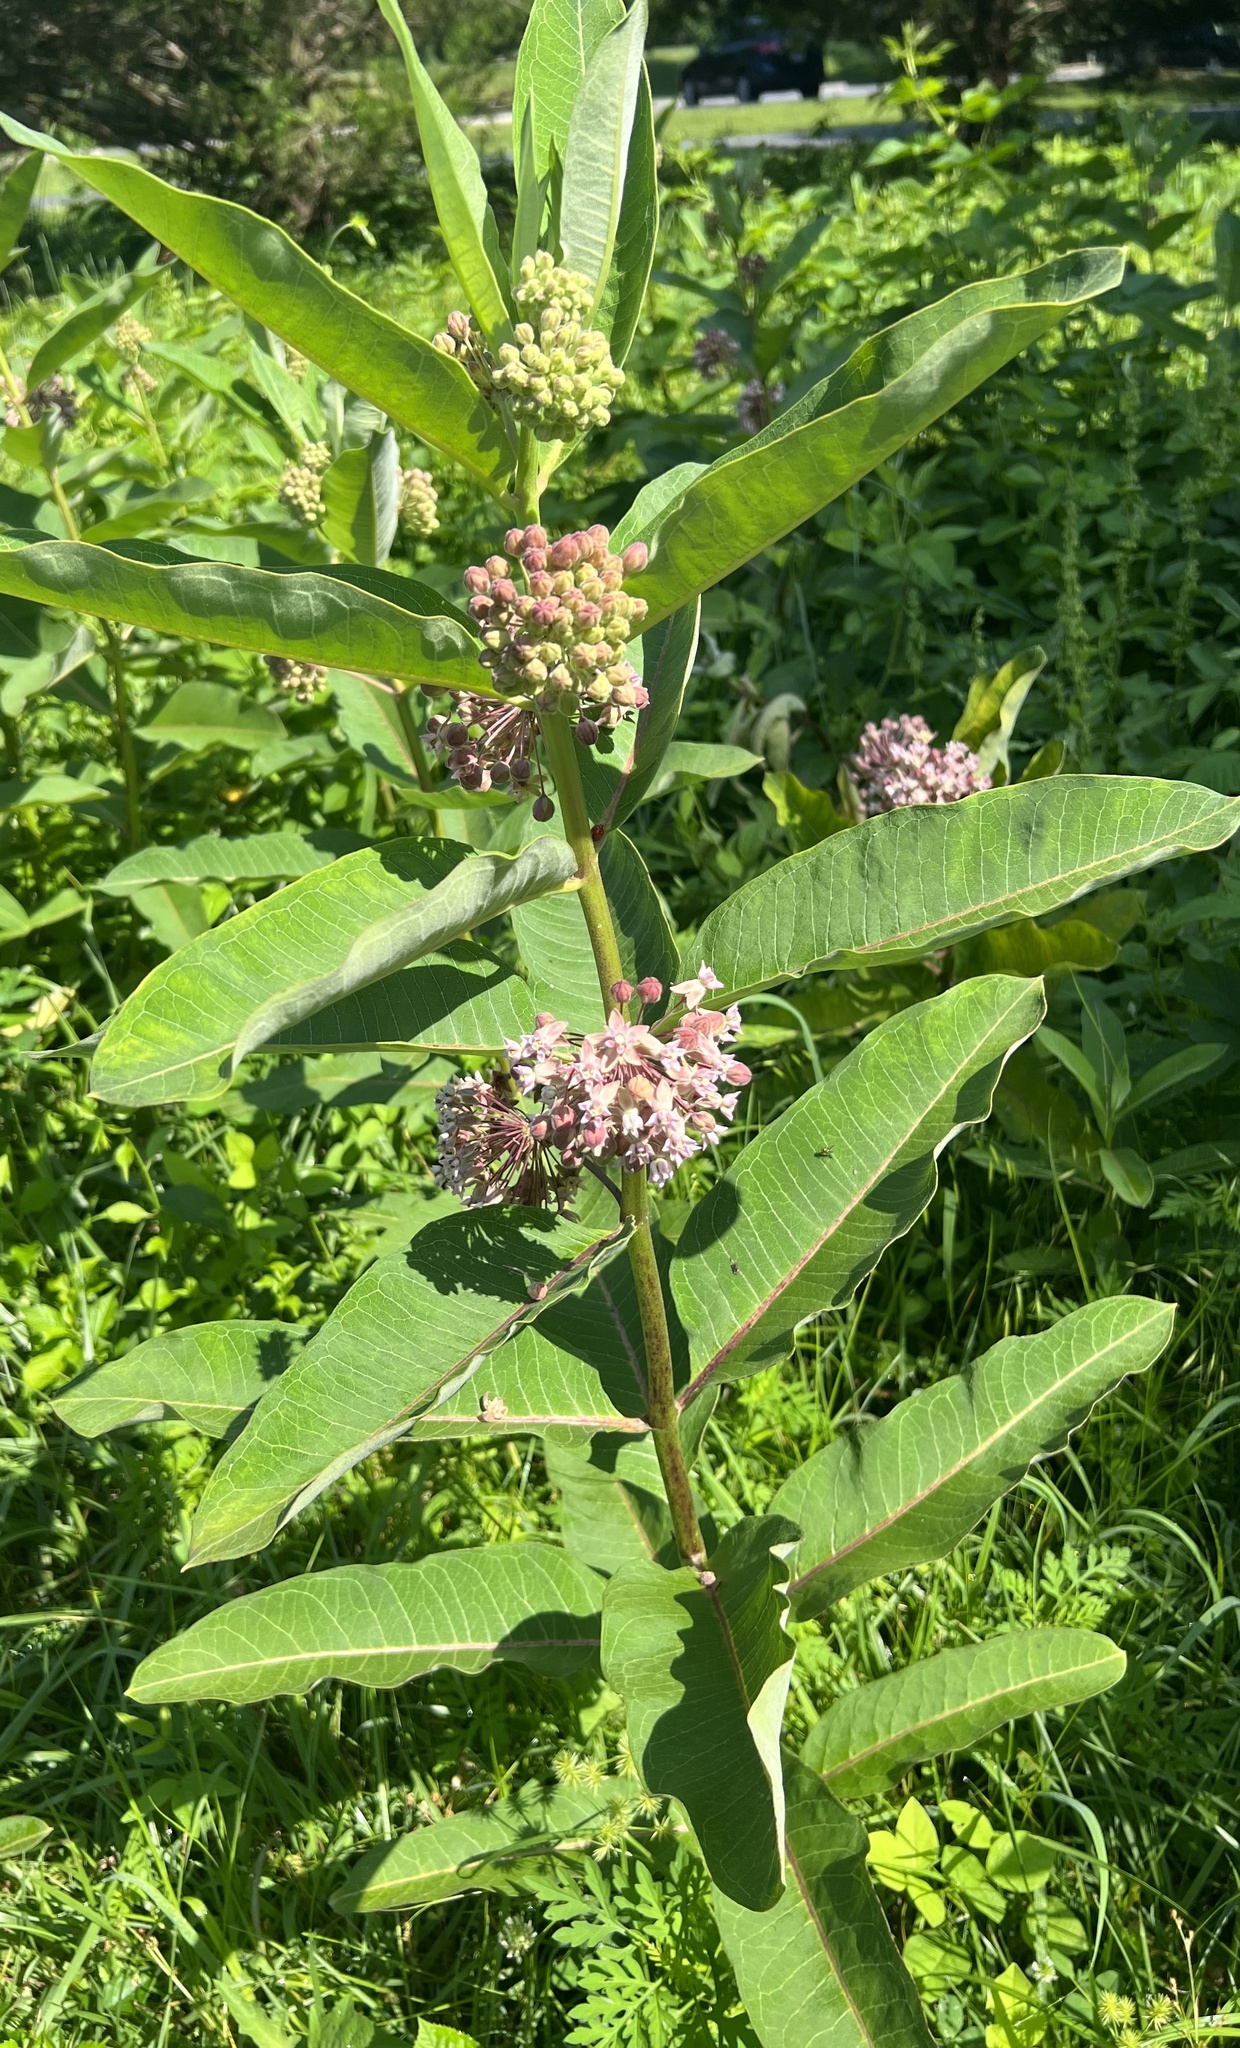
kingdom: Plantae
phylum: Tracheophyta
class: Magnoliopsida
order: Gentianales
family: Apocynaceae
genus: Asclepias
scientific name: Asclepias syriaca
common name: Common milkweed
